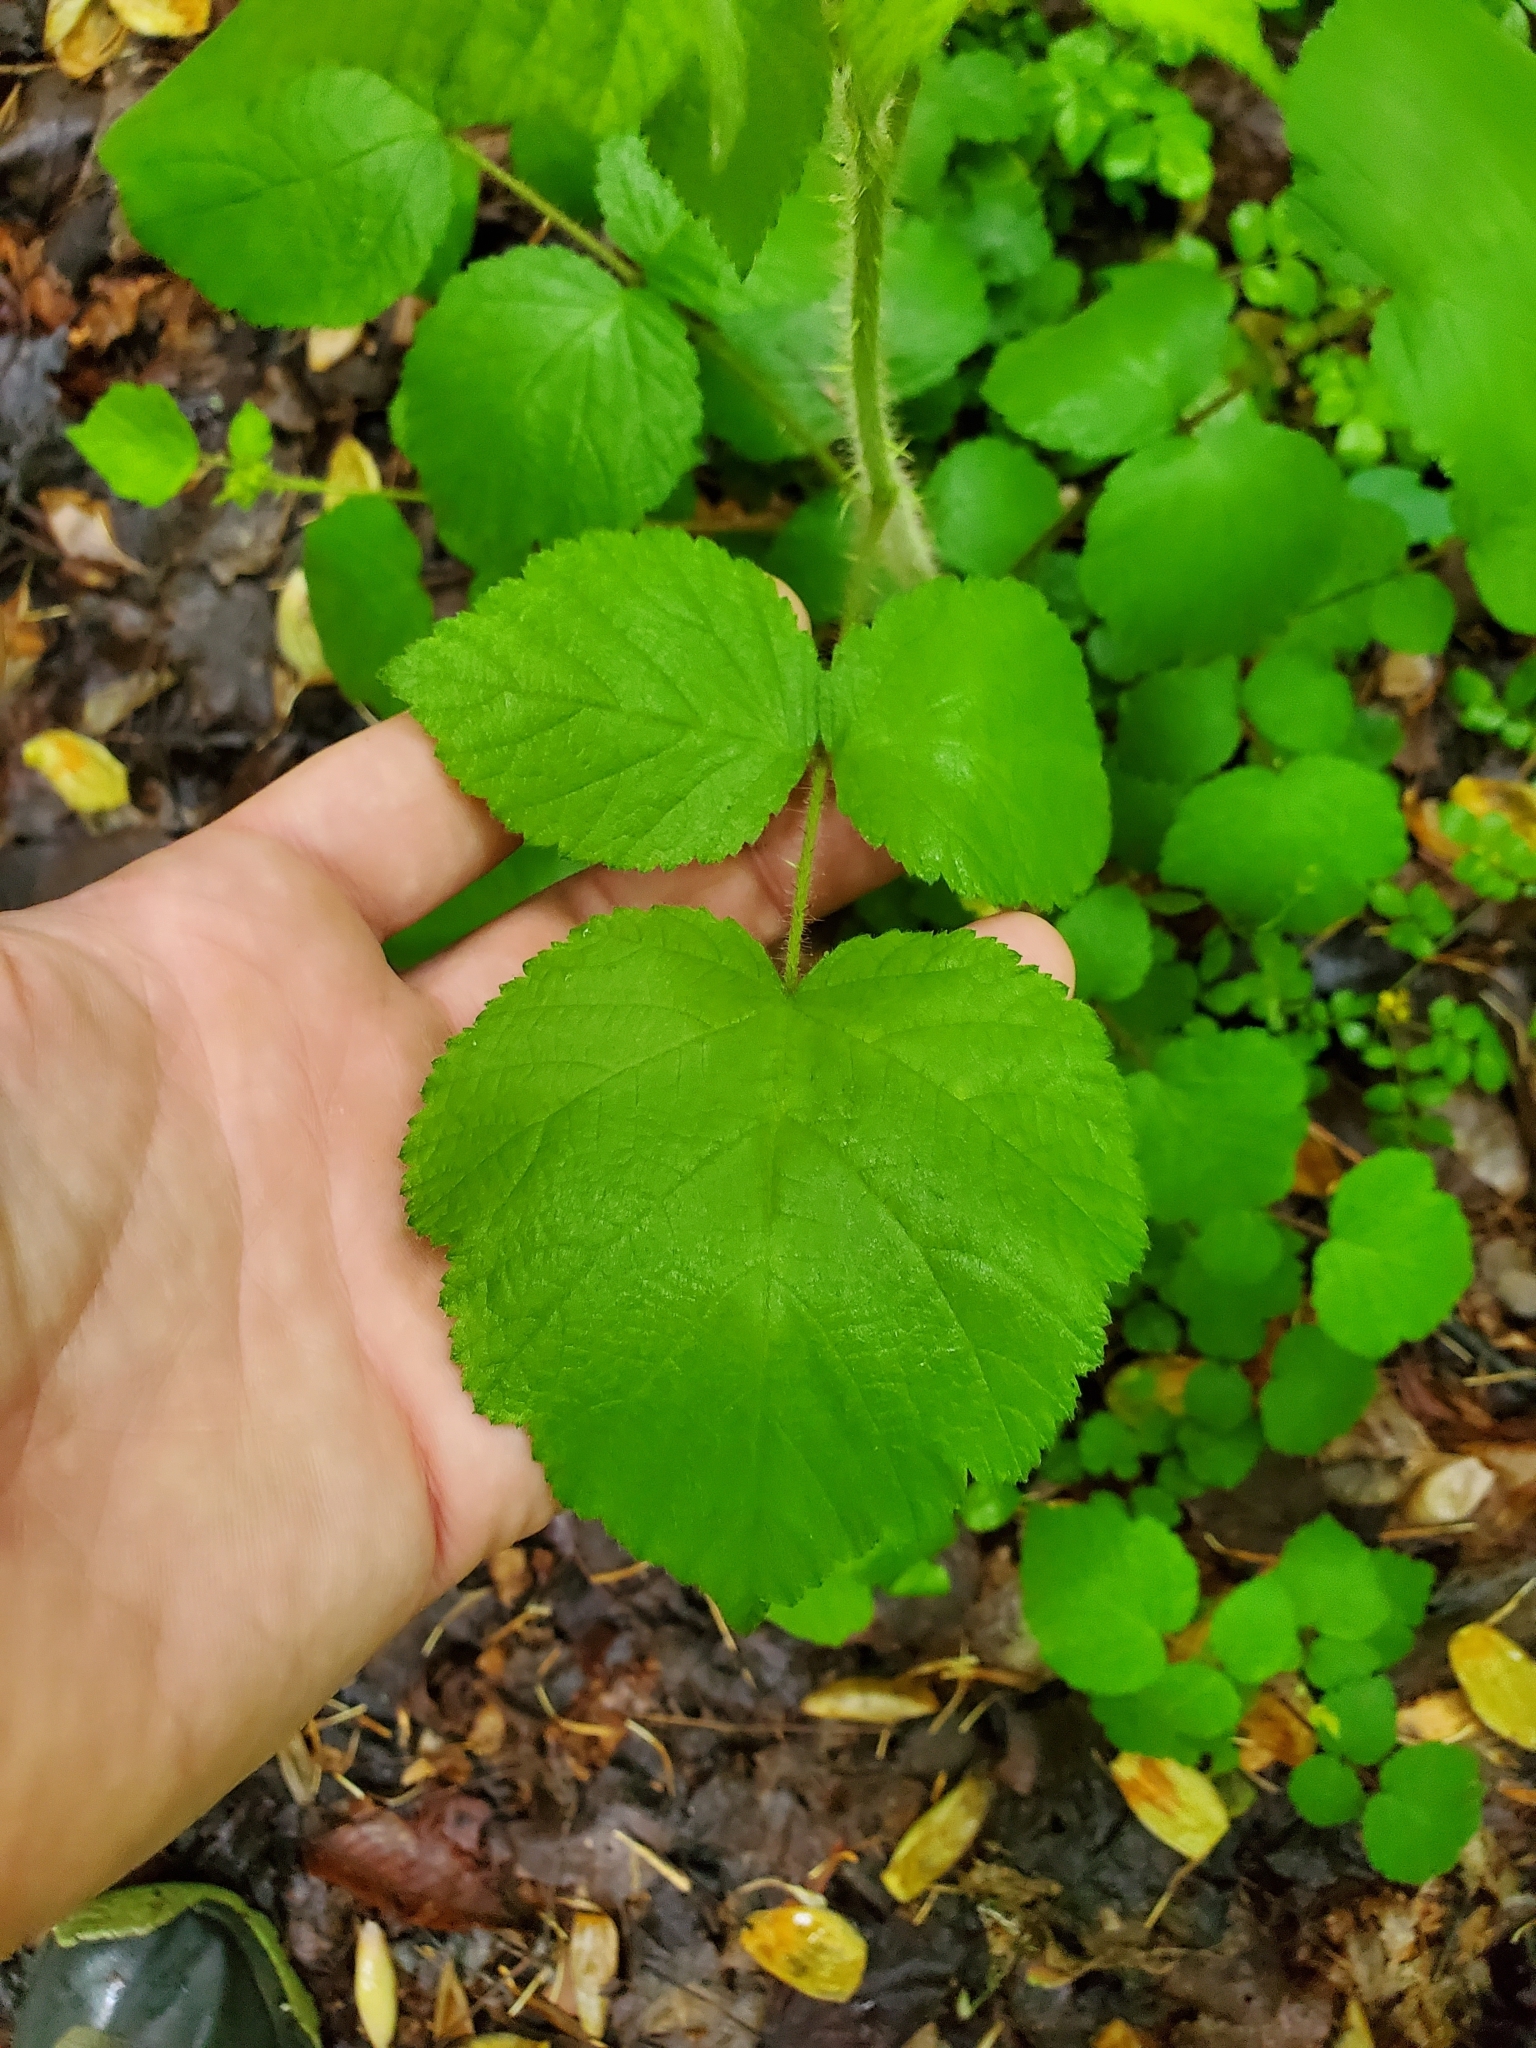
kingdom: Plantae
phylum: Tracheophyta
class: Magnoliopsida
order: Rosales
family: Rosaceae
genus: Rubus
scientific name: Rubus phoenicolasius
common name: Japanese wineberry
